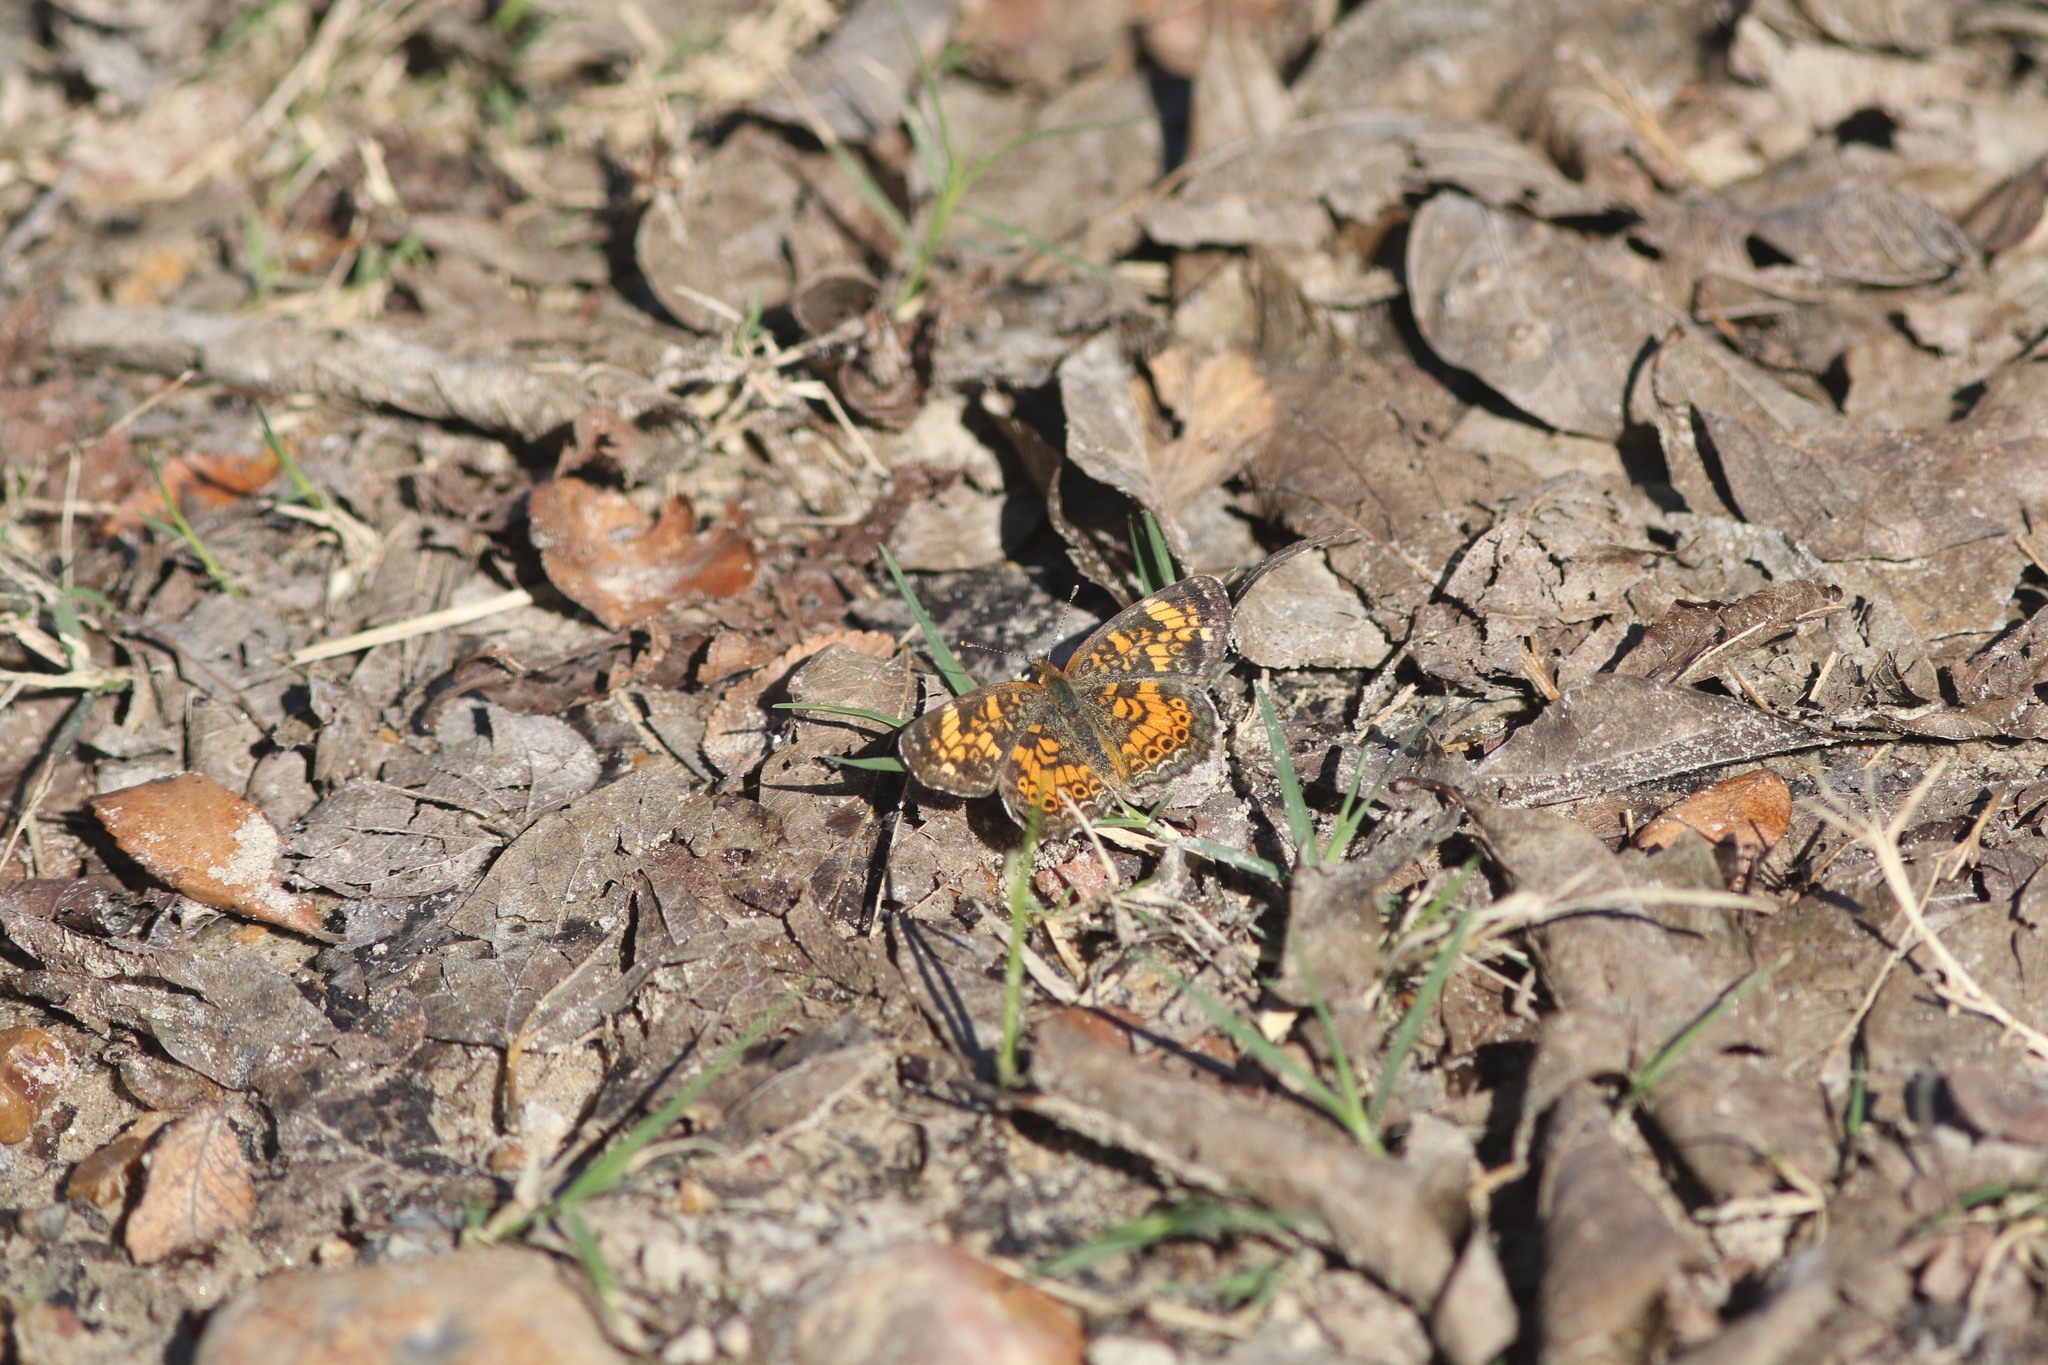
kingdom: Animalia
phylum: Arthropoda
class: Insecta
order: Lepidoptera
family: Nymphalidae
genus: Phyciodes
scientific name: Phyciodes tharos
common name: Pearl crescent
